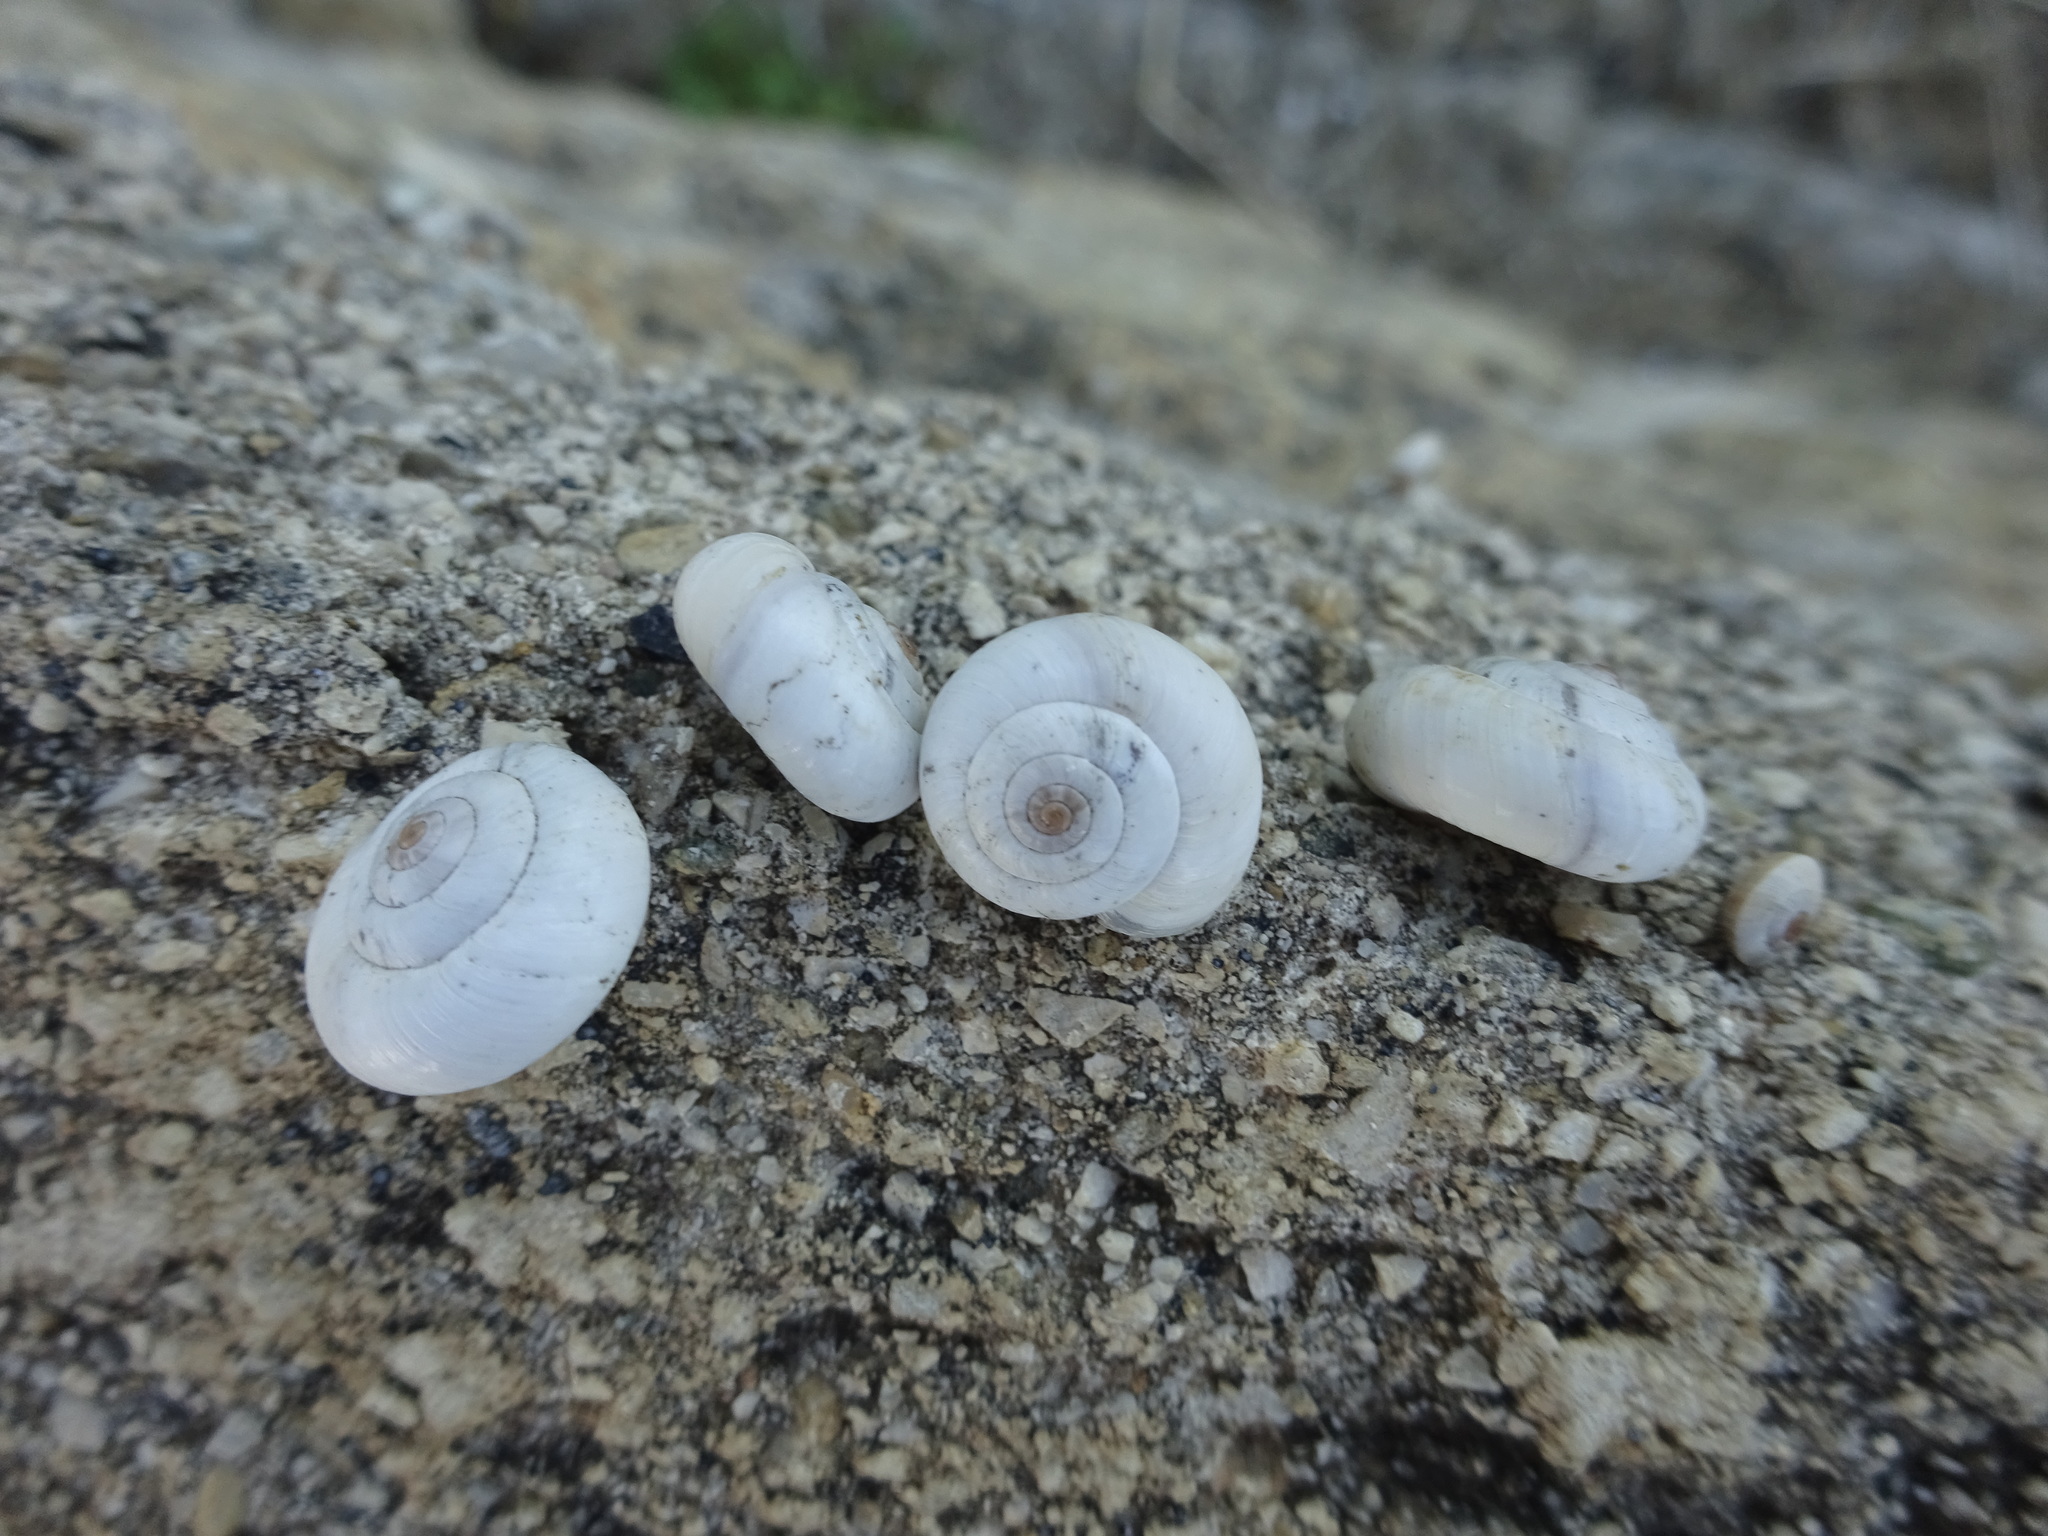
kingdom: Animalia
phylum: Mollusca
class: Gastropoda
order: Stylommatophora
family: Geomitridae
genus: Xeropicta
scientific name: Xeropicta derbentina
